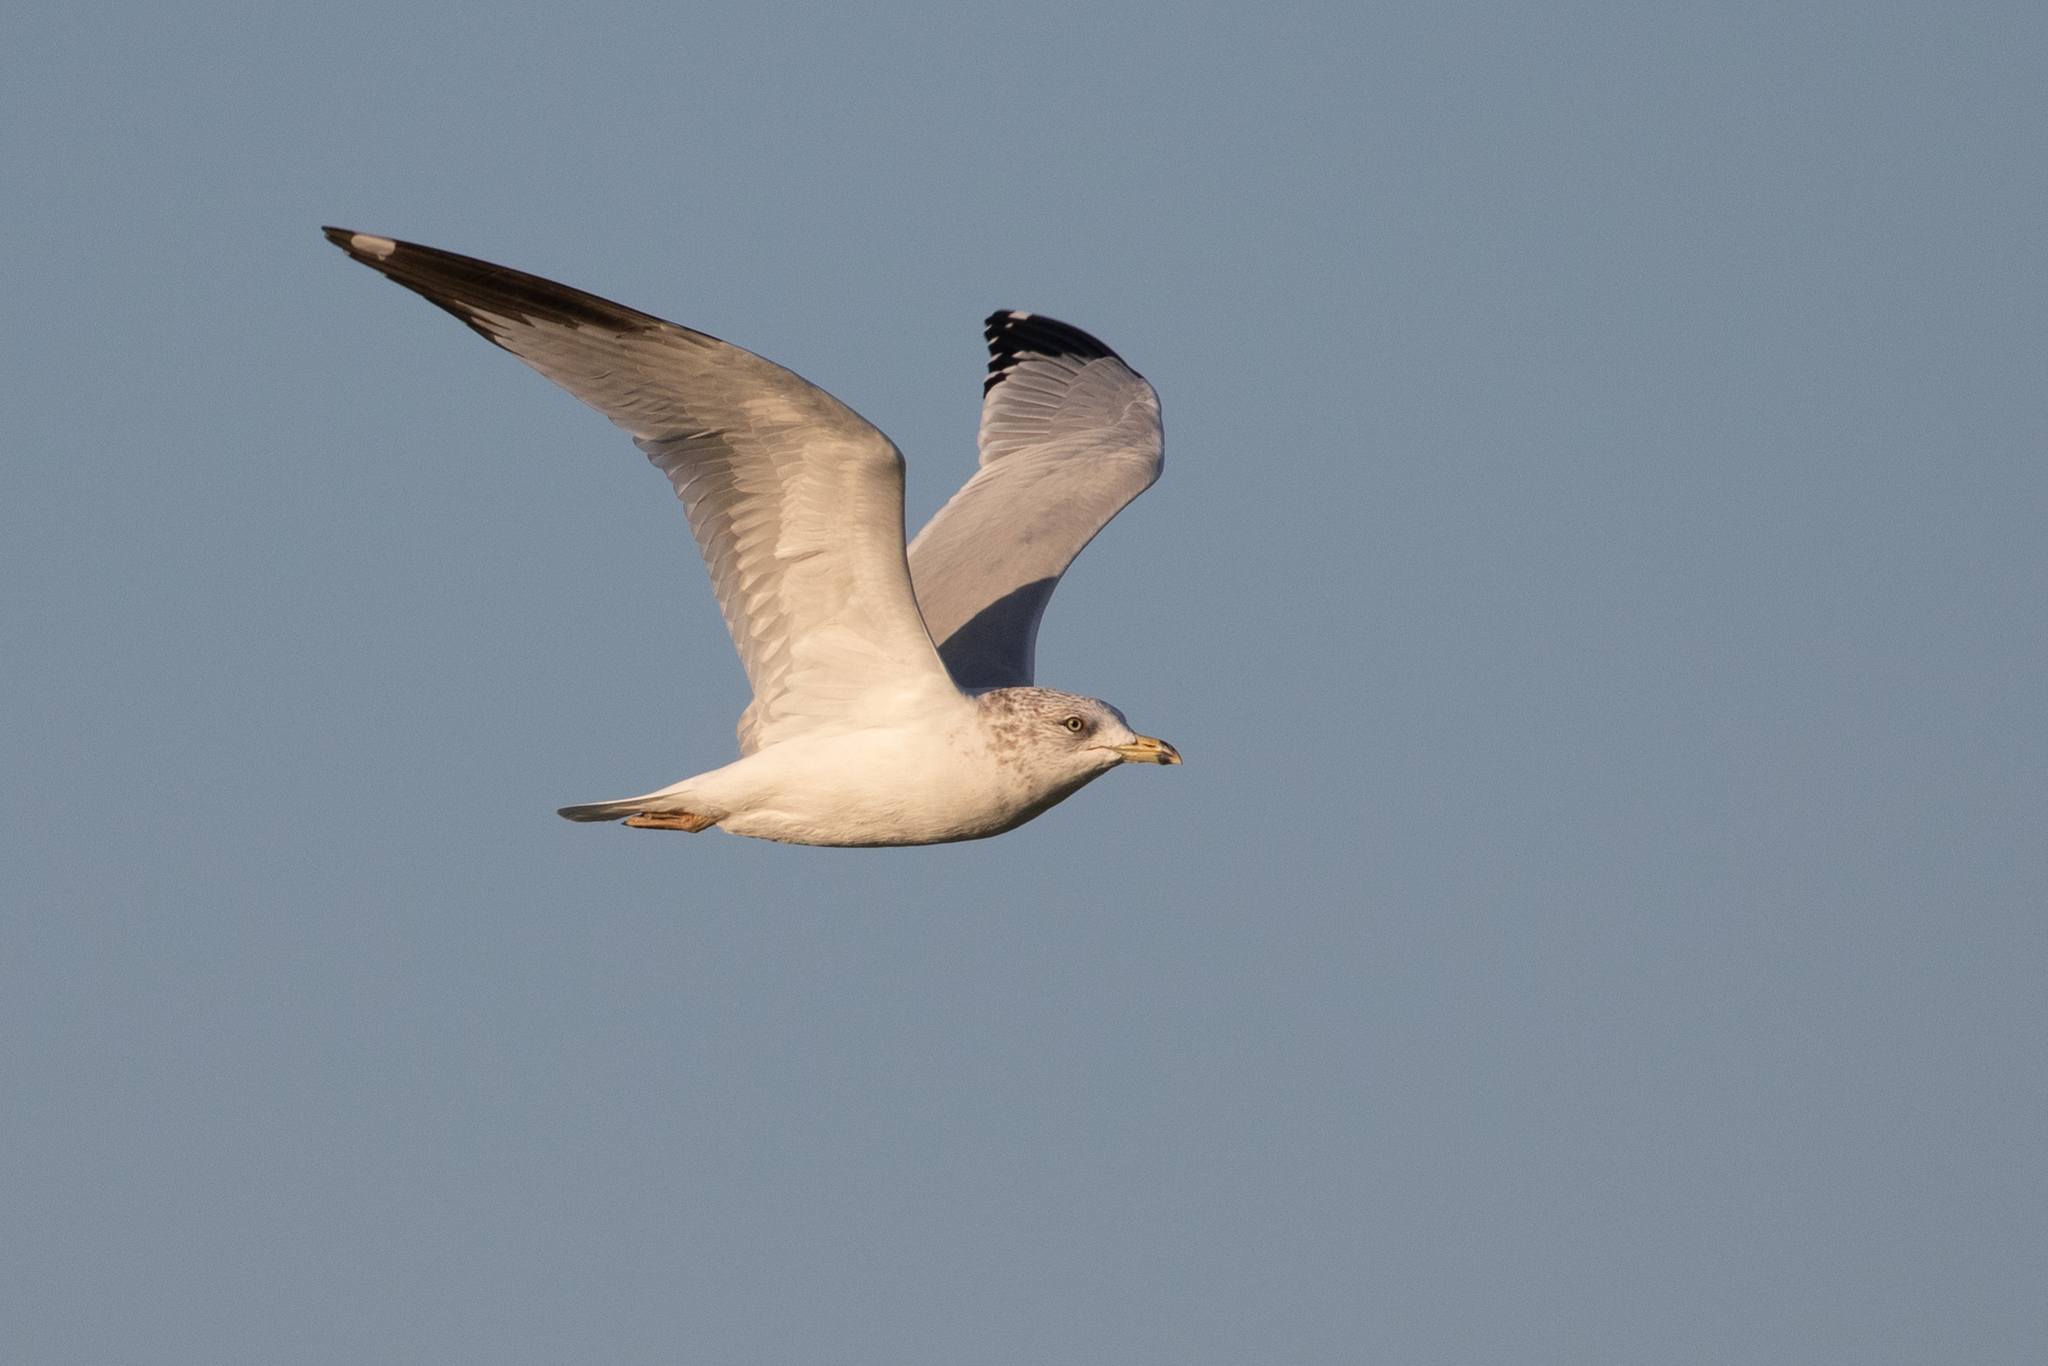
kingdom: Animalia
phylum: Chordata
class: Aves
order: Charadriiformes
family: Laridae
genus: Larus
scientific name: Larus delawarensis
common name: Ring-billed gull
